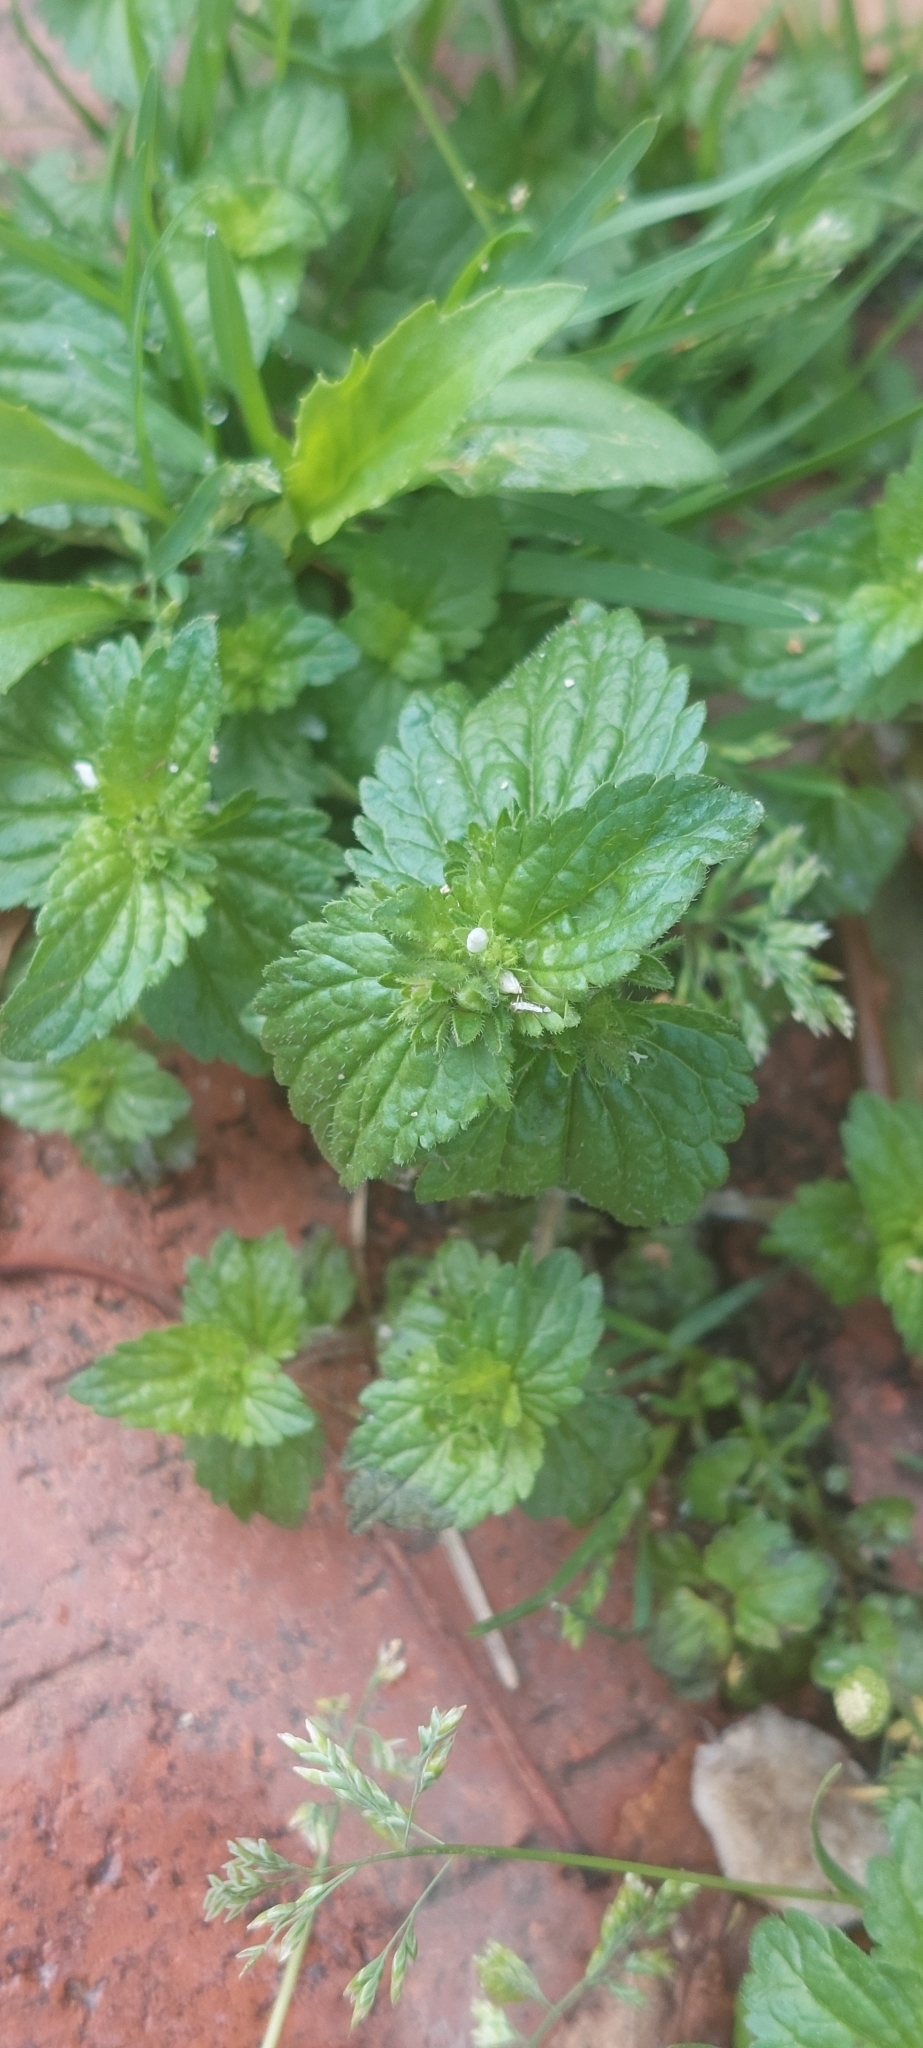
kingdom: Plantae
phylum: Tracheophyta
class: Magnoliopsida
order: Lamiales
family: Plantaginaceae
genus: Veronica
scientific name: Veronica javanica
